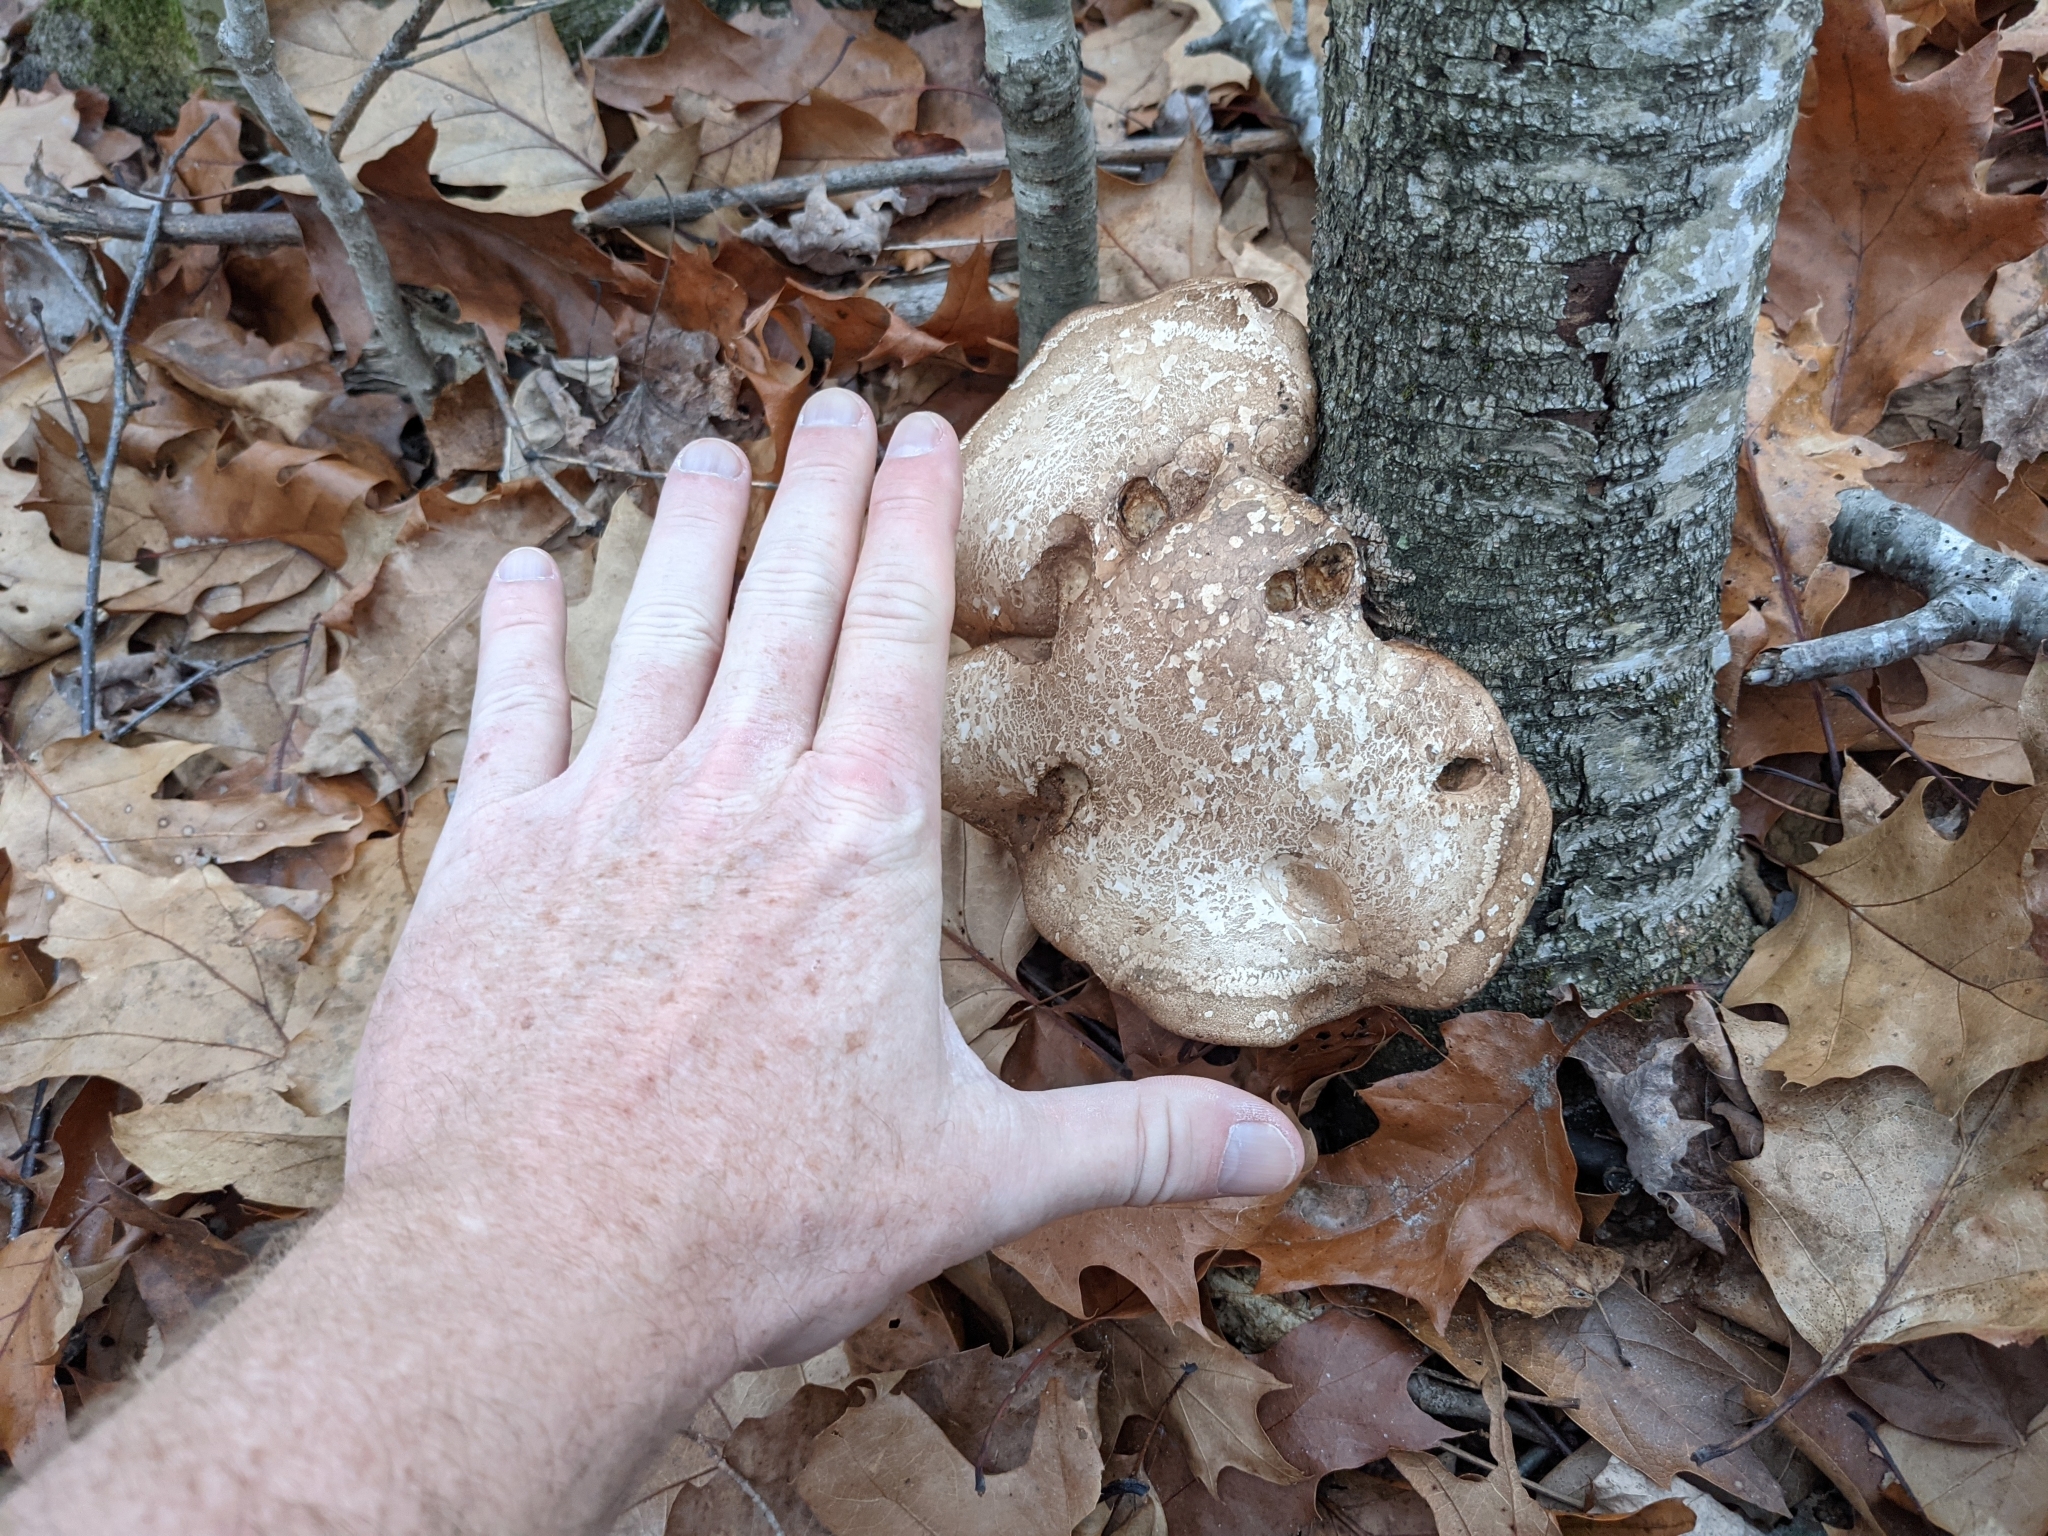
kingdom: Fungi
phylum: Basidiomycota
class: Agaricomycetes
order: Polyporales
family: Fomitopsidaceae
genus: Fomitopsis
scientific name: Fomitopsis betulina
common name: Birch polypore
